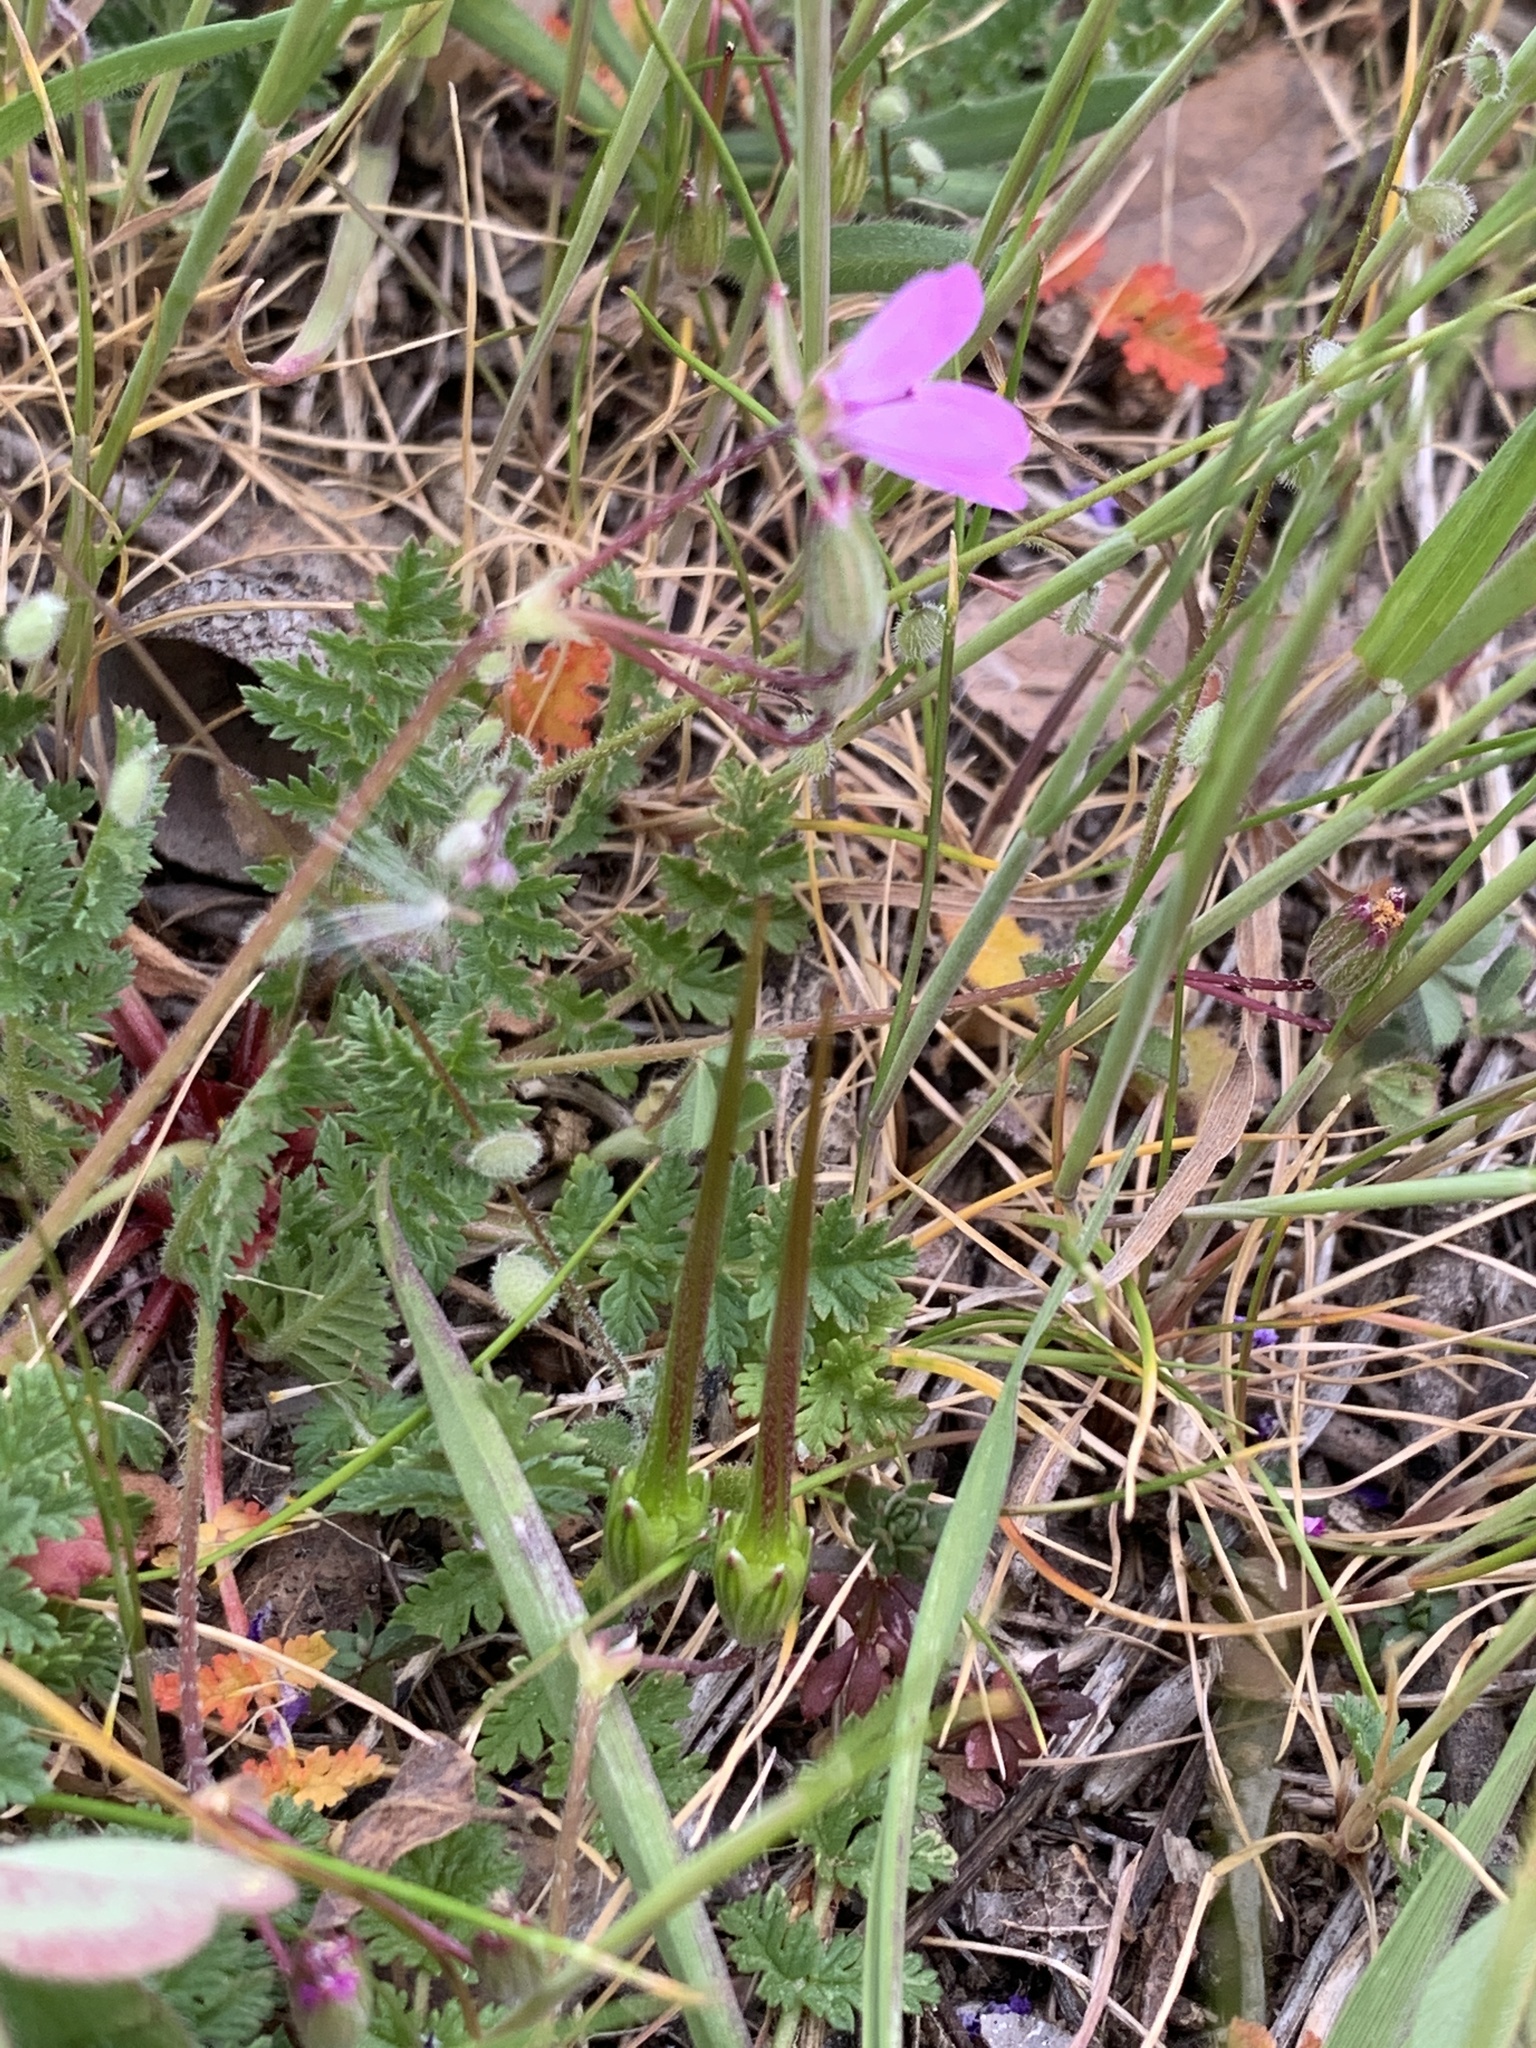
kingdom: Plantae
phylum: Tracheophyta
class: Magnoliopsida
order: Geraniales
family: Geraniaceae
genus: Erodium
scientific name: Erodium cicutarium
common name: Common stork's-bill
